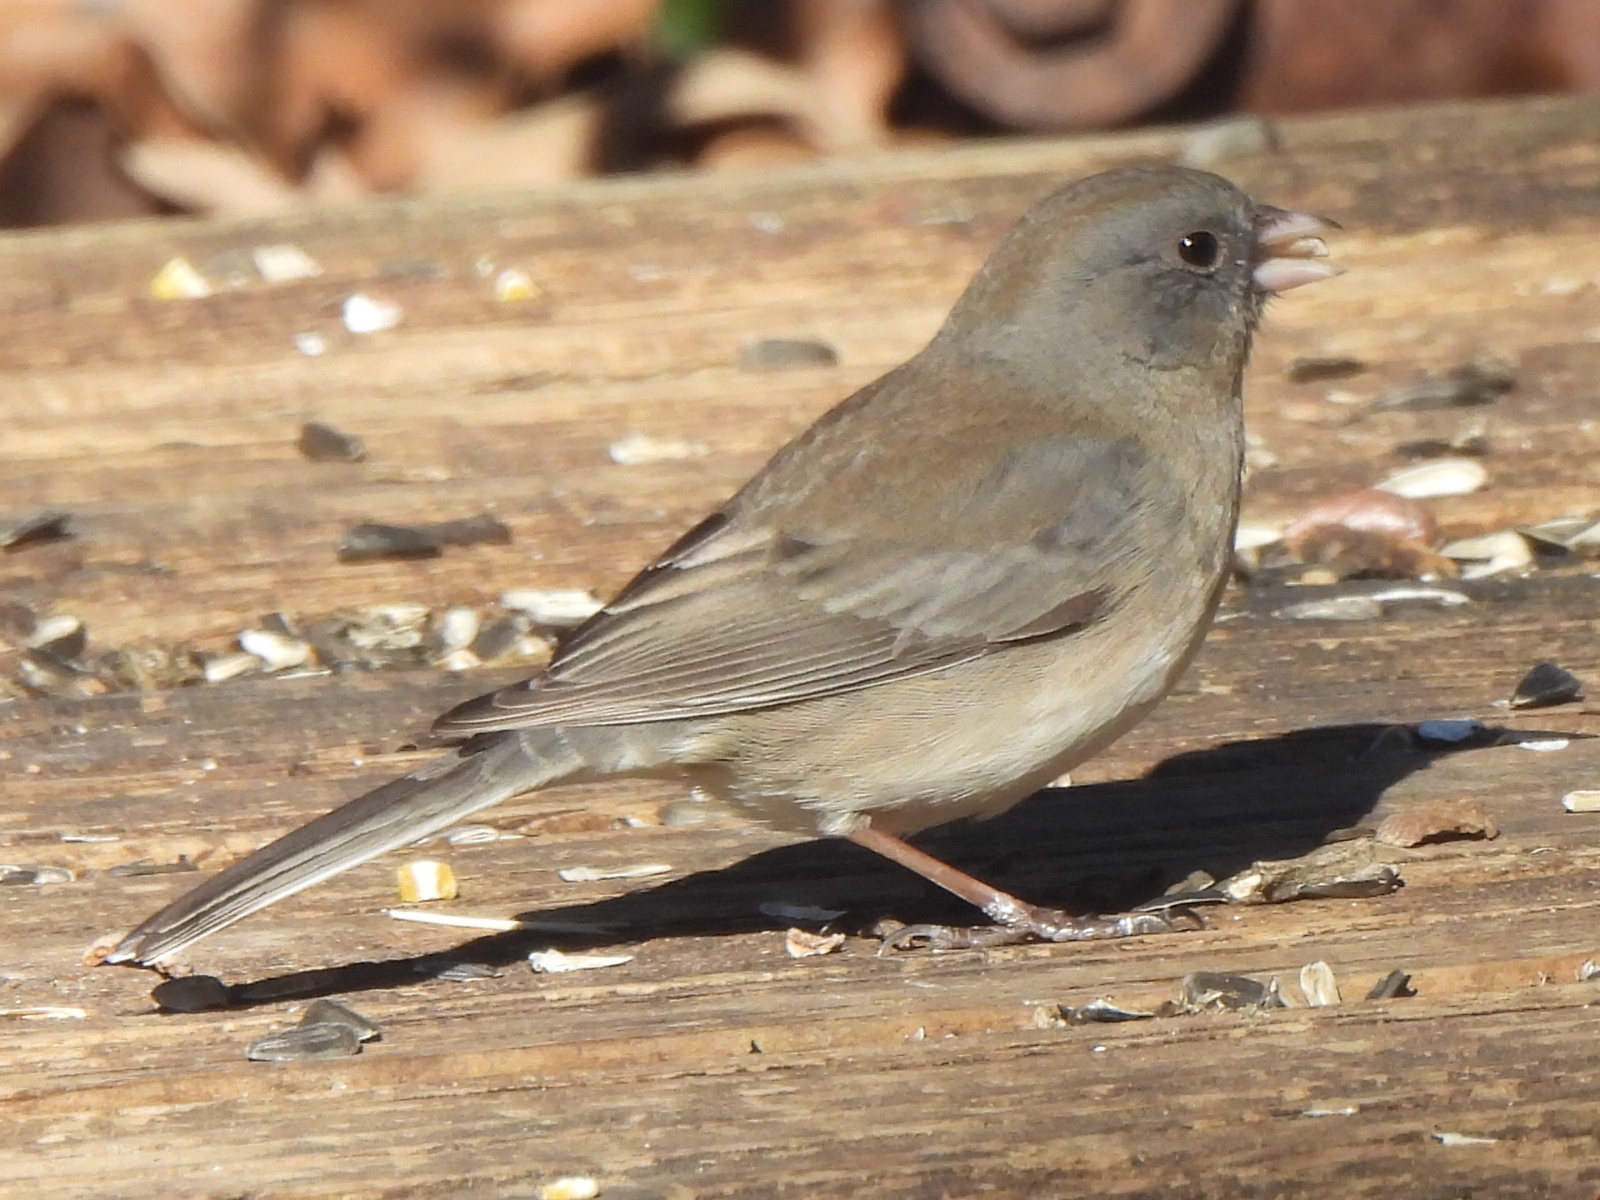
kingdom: Animalia
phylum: Chordata
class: Aves
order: Passeriformes
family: Passerellidae
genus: Junco
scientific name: Junco hyemalis
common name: Dark-eyed junco
